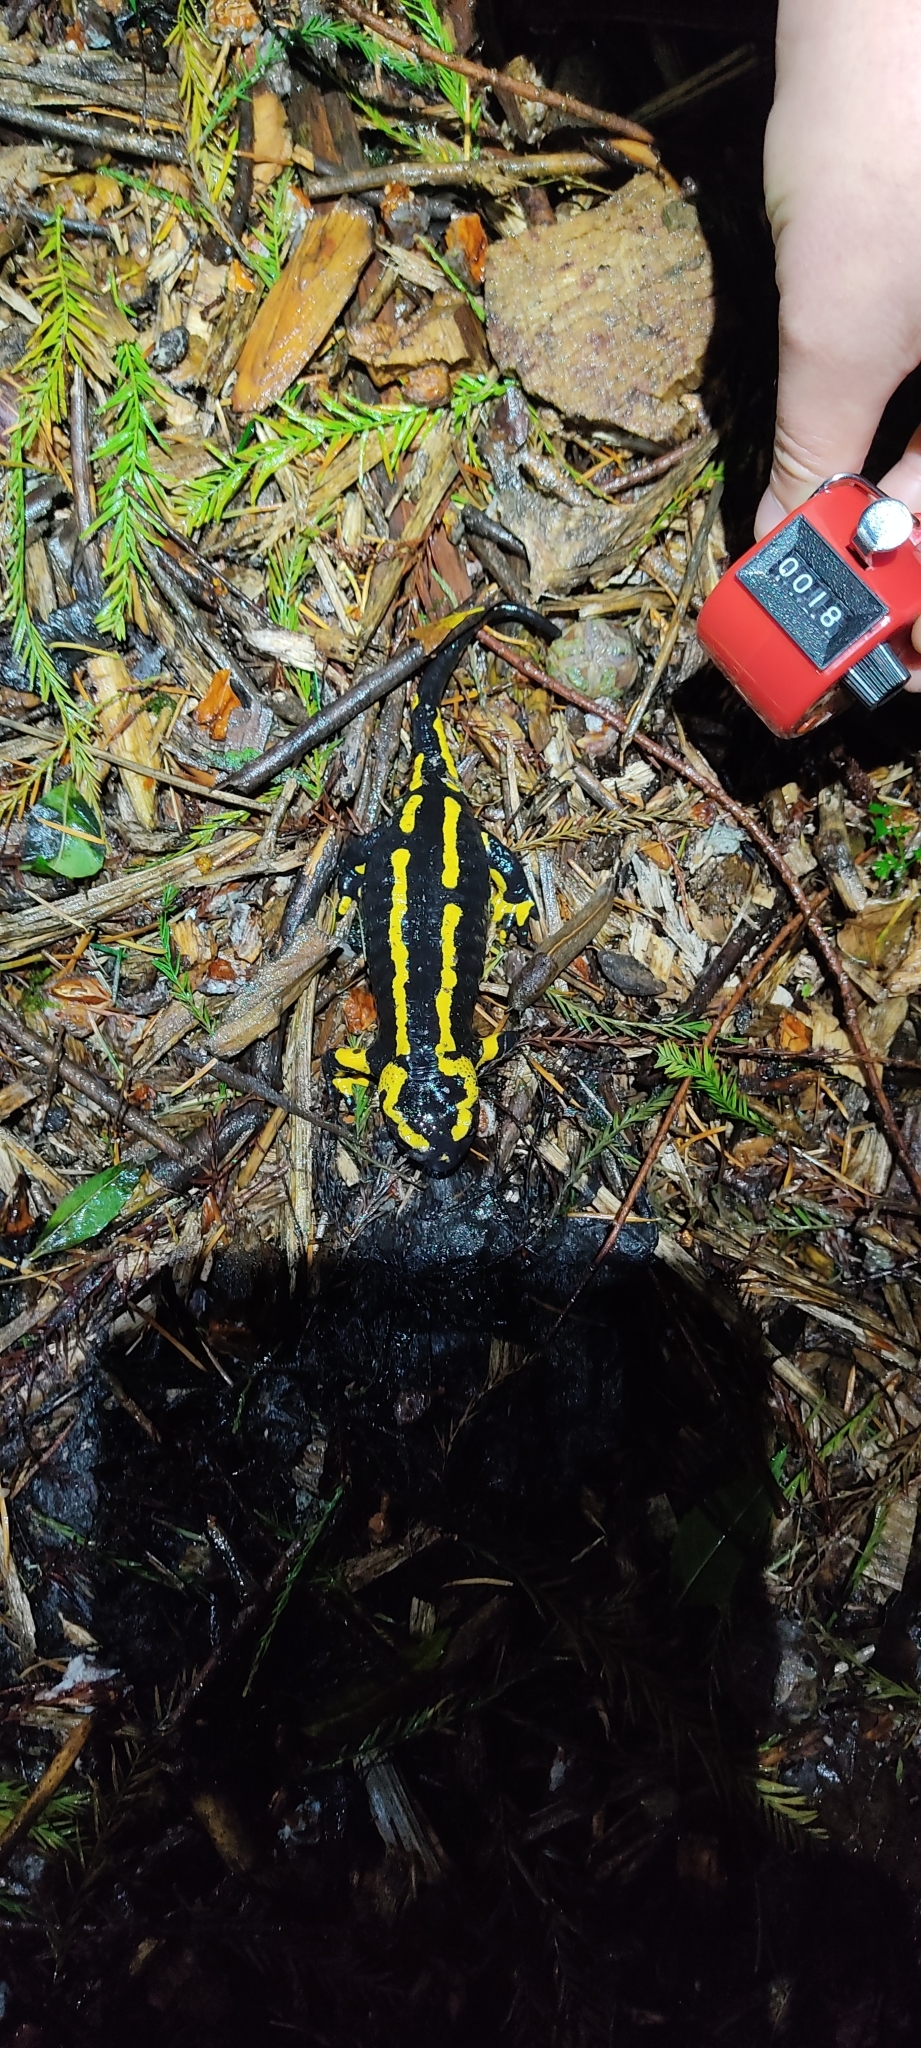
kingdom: Animalia
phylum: Chordata
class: Amphibia
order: Caudata
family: Salamandridae
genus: Salamandra
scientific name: Salamandra salamandra
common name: Fire salamander
